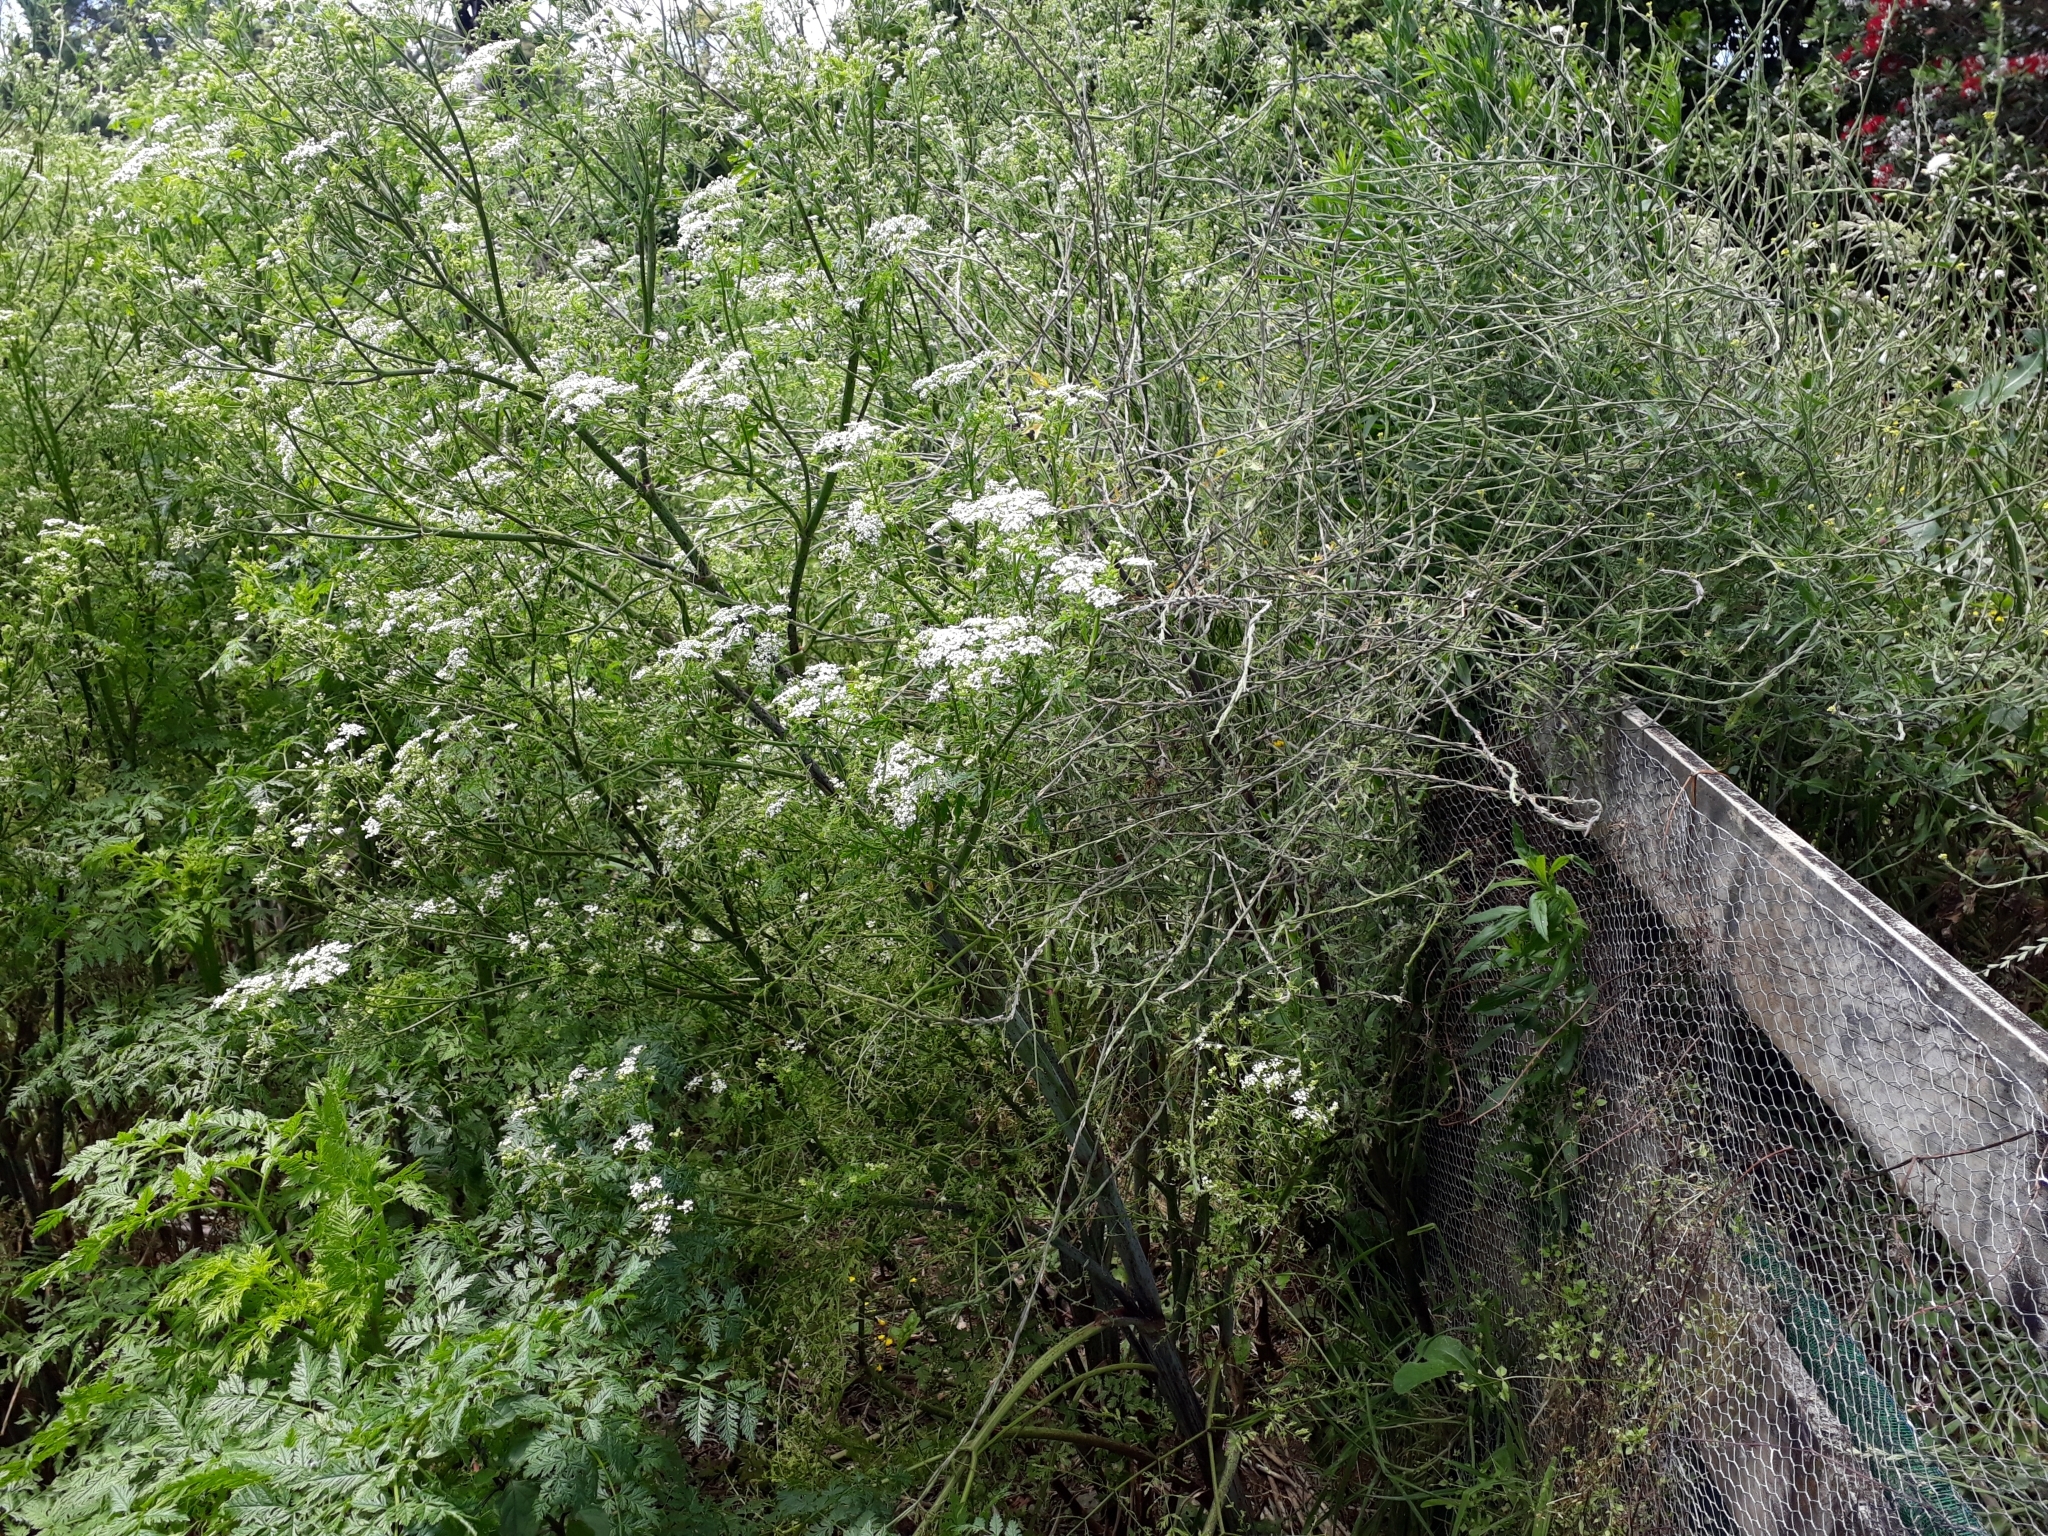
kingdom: Plantae
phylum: Tracheophyta
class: Magnoliopsida
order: Apiales
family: Apiaceae
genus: Conium
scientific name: Conium maculatum
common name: Hemlock
